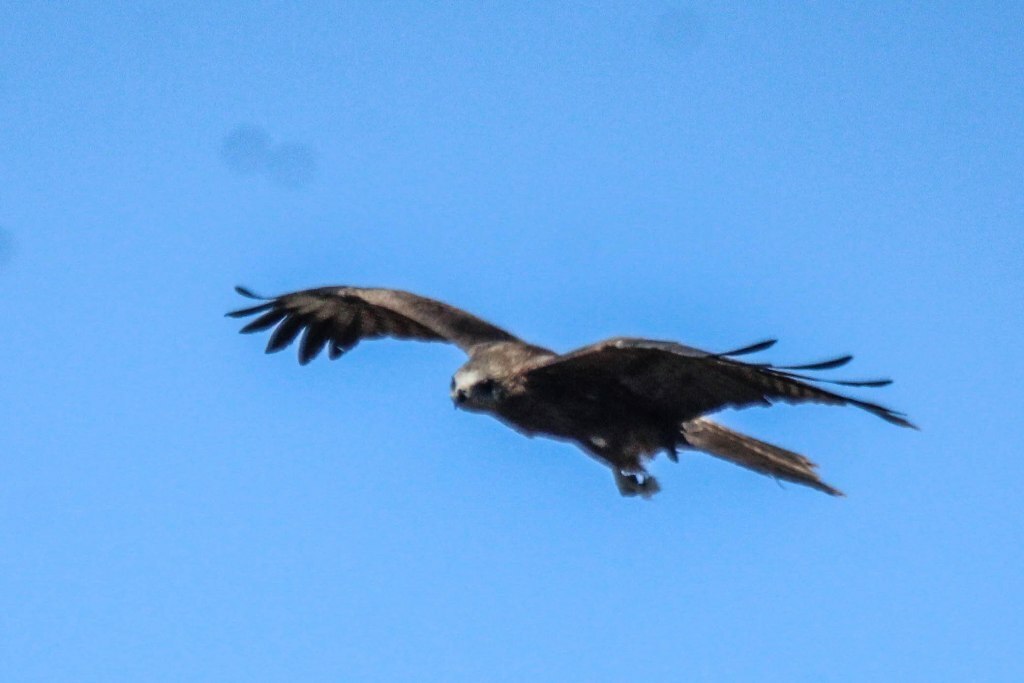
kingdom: Animalia
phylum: Chordata
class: Aves
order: Accipitriformes
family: Accipitridae
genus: Milvus
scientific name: Milvus migrans
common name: Black kite
